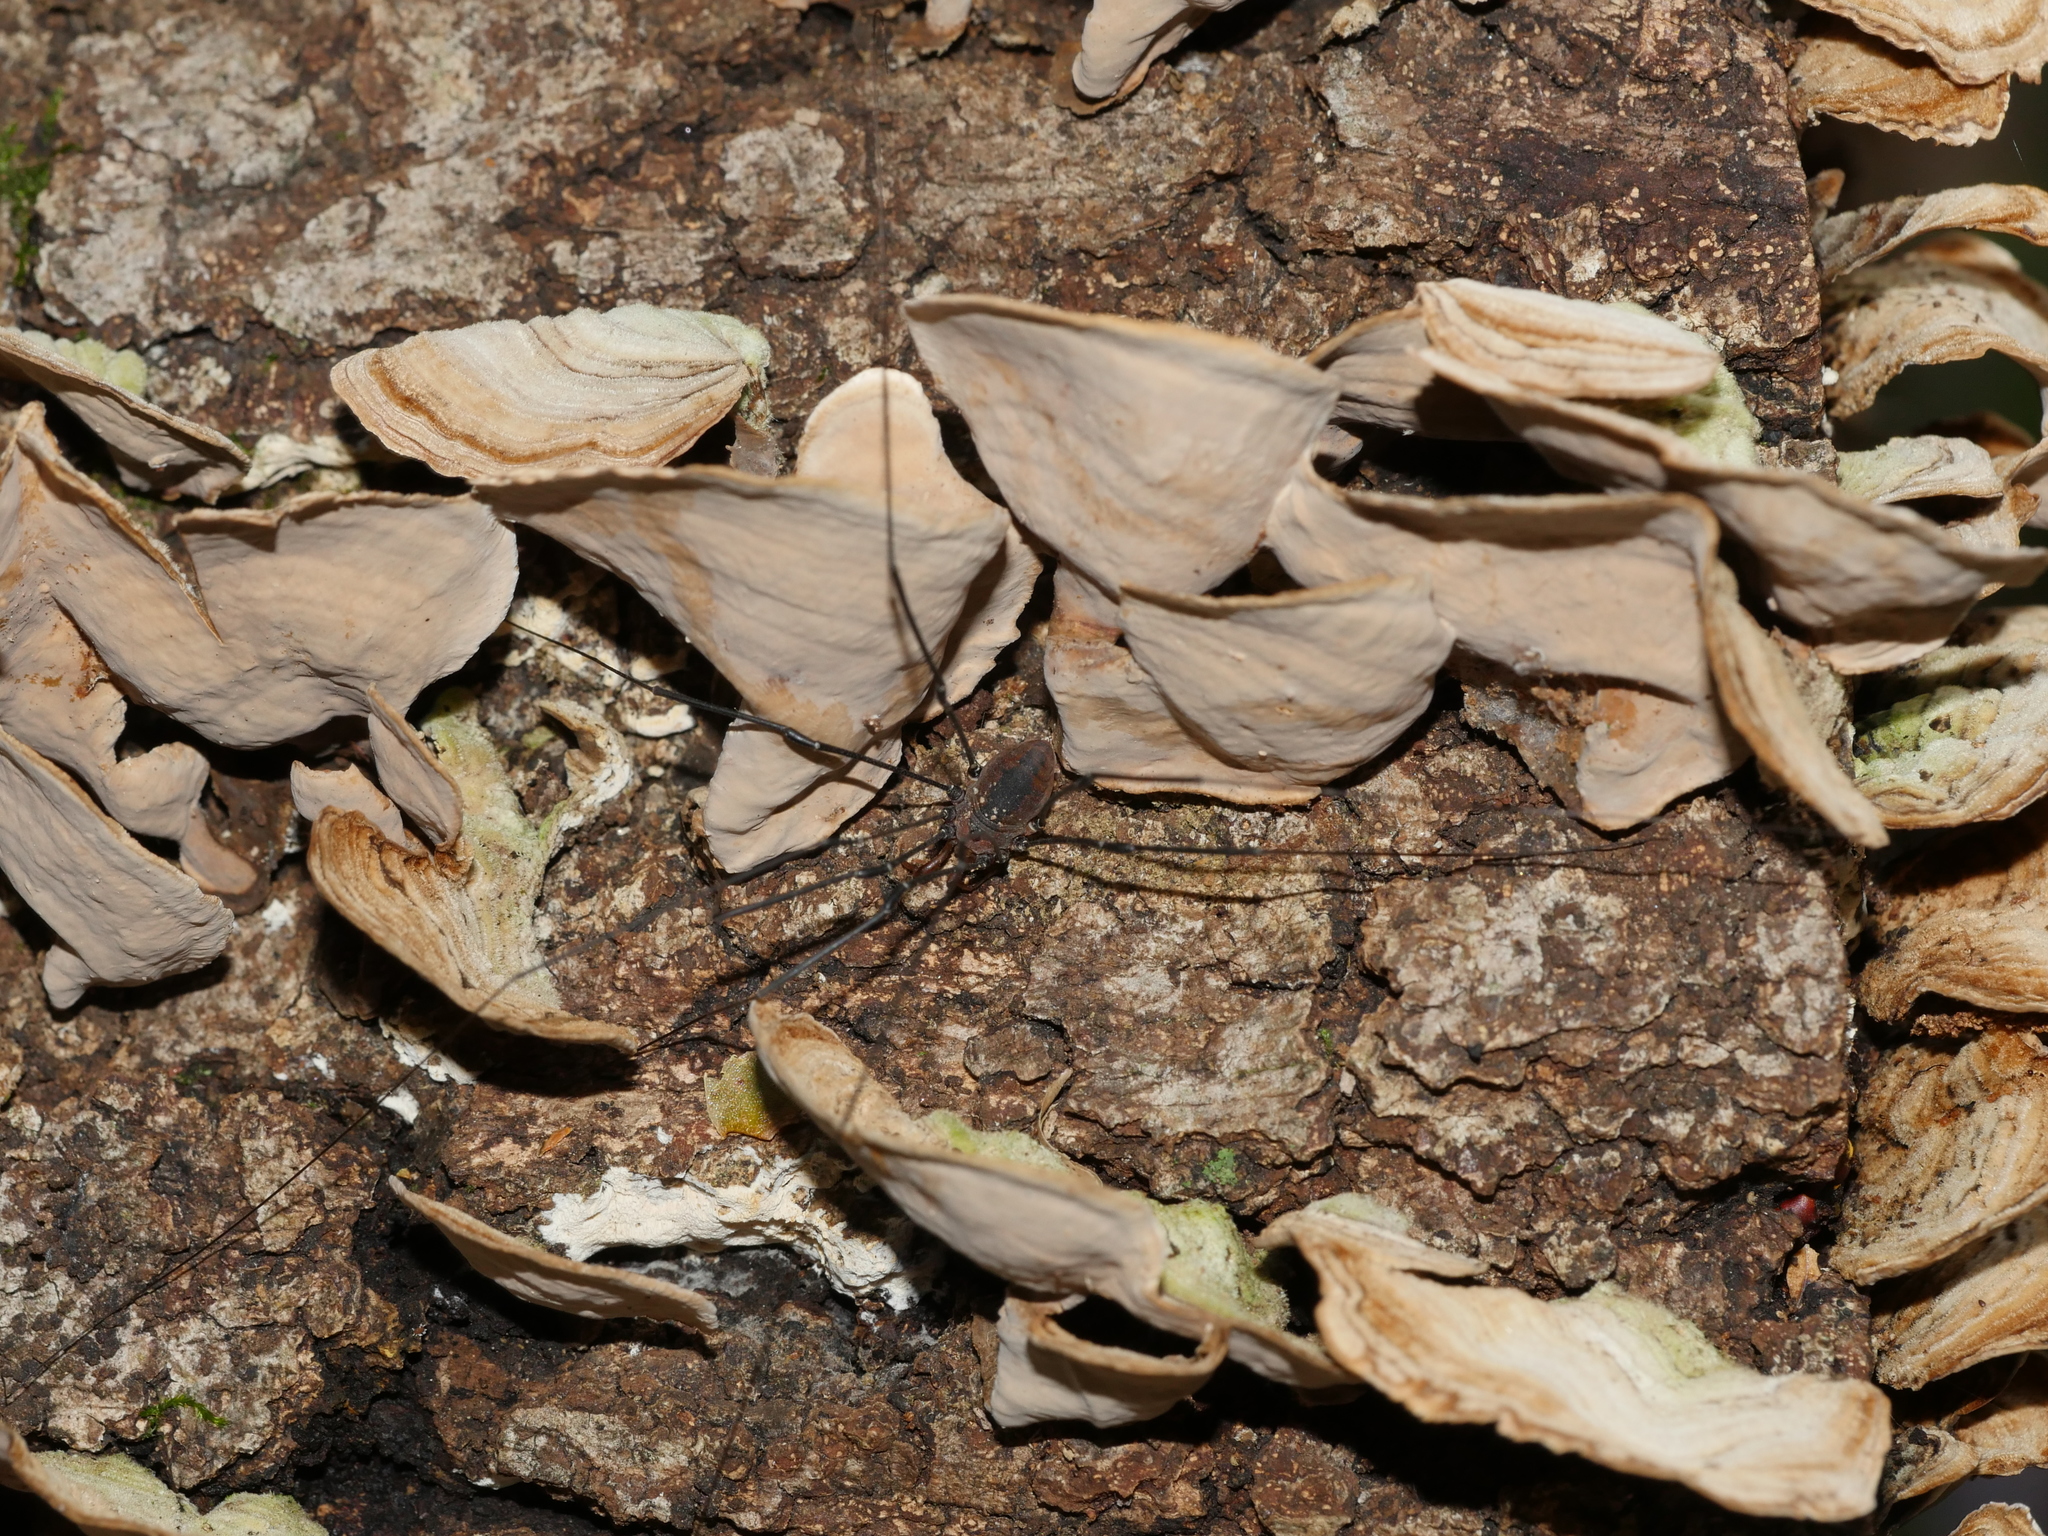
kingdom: Animalia
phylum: Arthropoda
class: Arachnida
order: Opiliones
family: Sclerosomatidae
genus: Leiobunum
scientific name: Leiobunum vittatum
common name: Eastern harvestman
